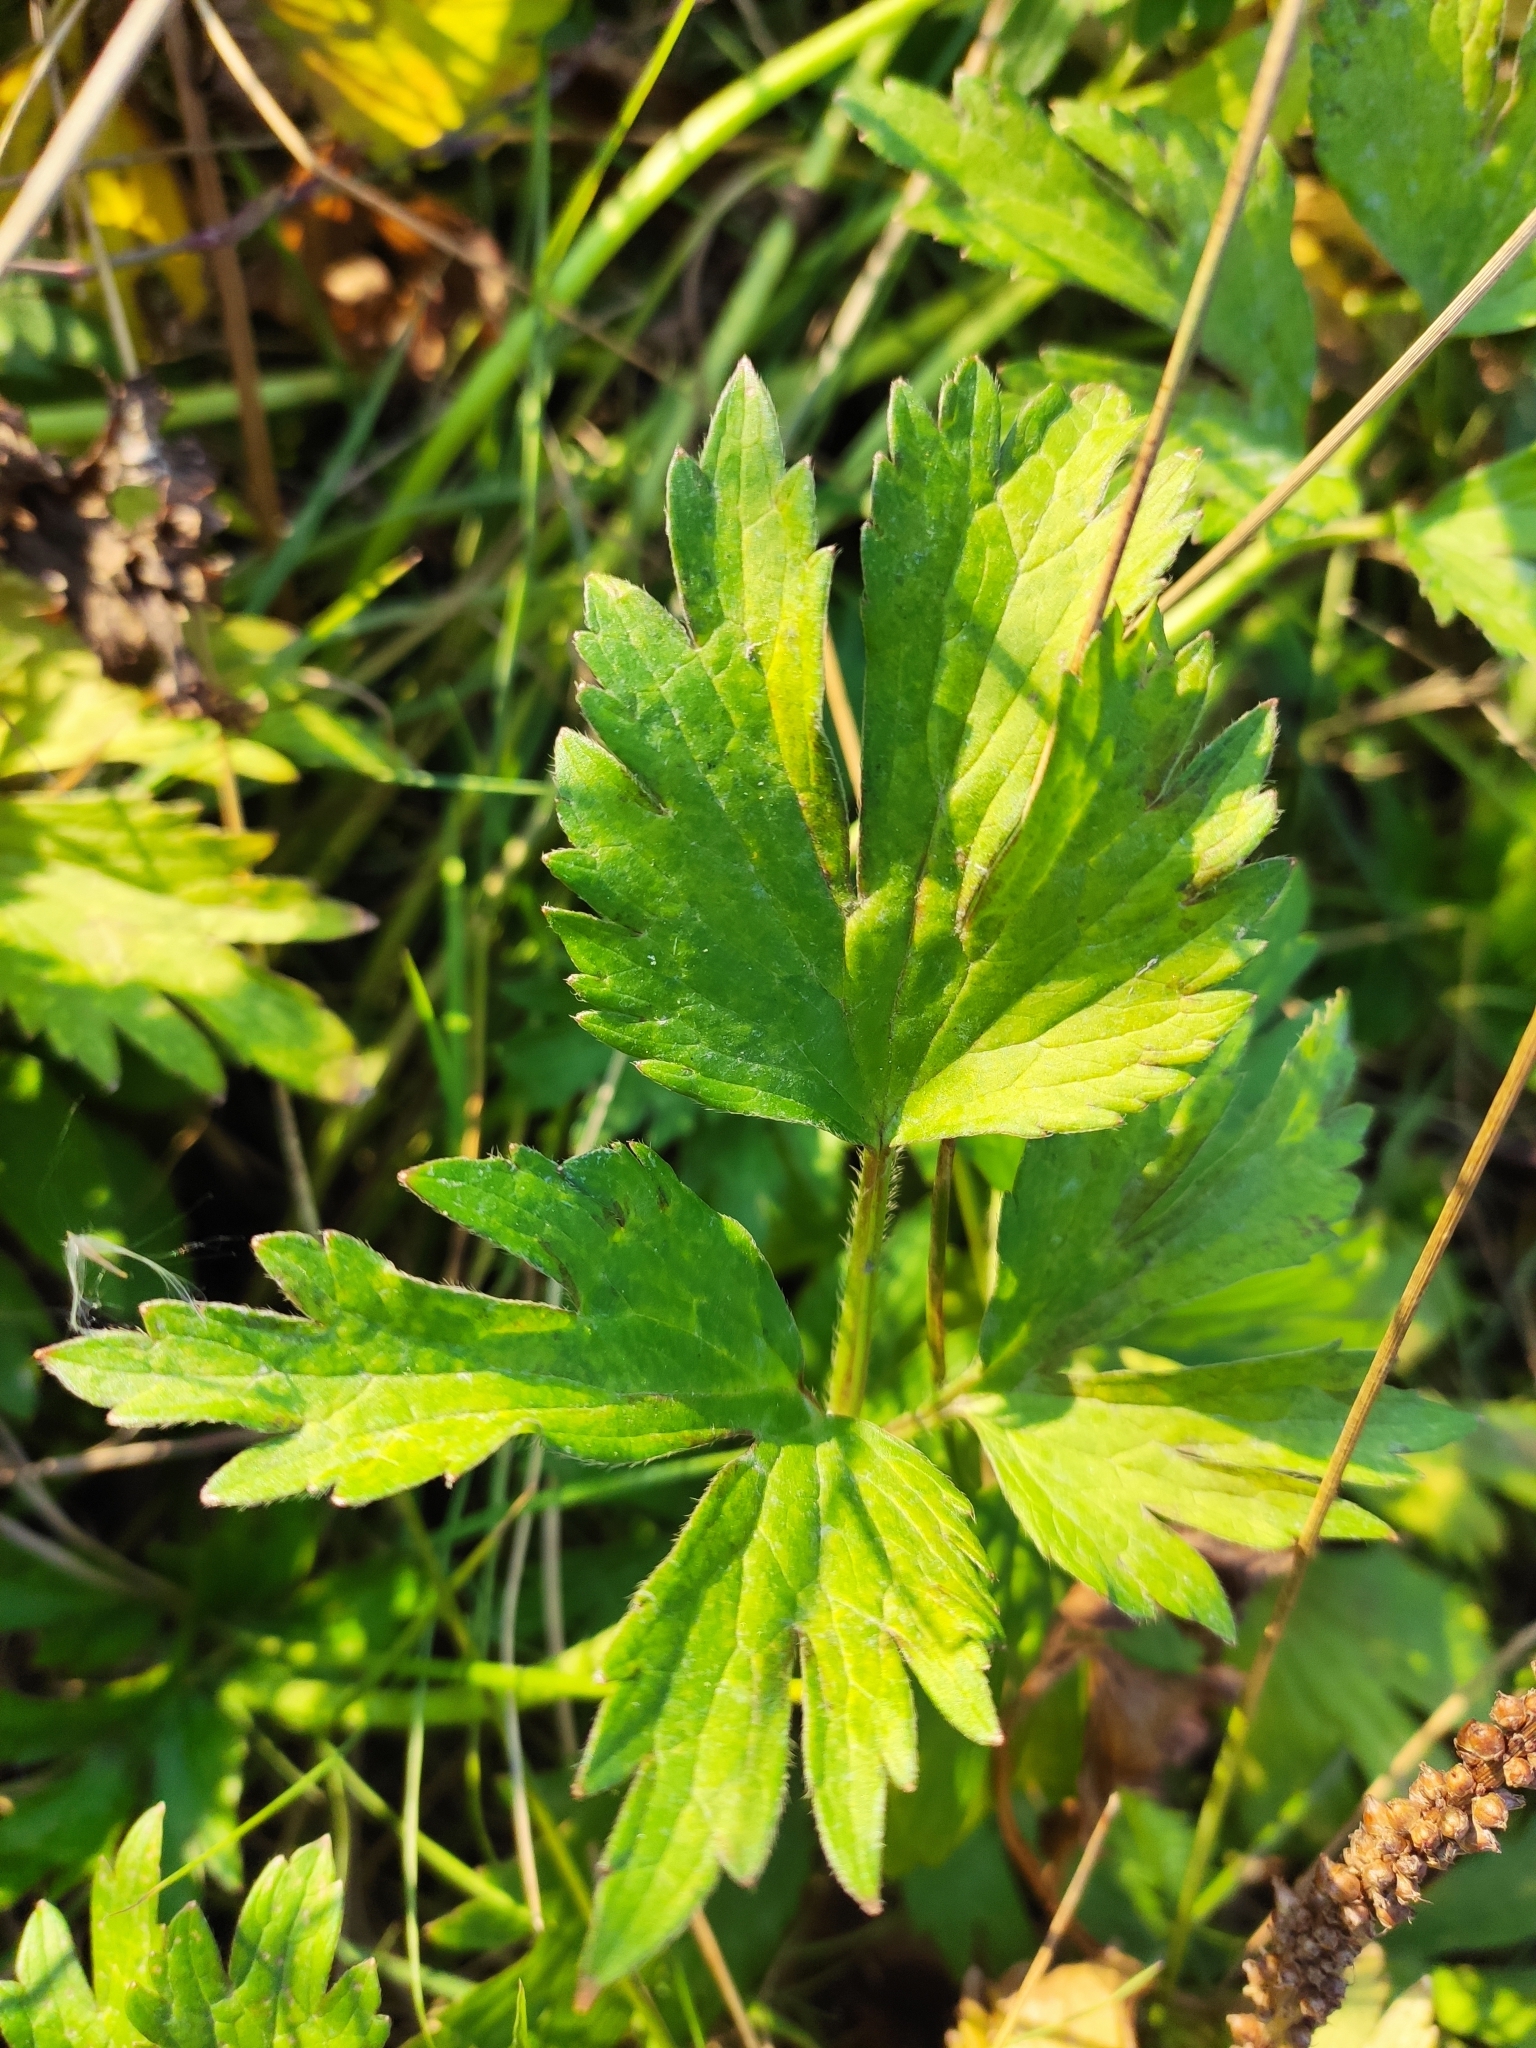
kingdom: Plantae
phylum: Tracheophyta
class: Magnoliopsida
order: Ranunculales
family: Ranunculaceae
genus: Ranunculus
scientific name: Ranunculus repens
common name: Creeping buttercup
